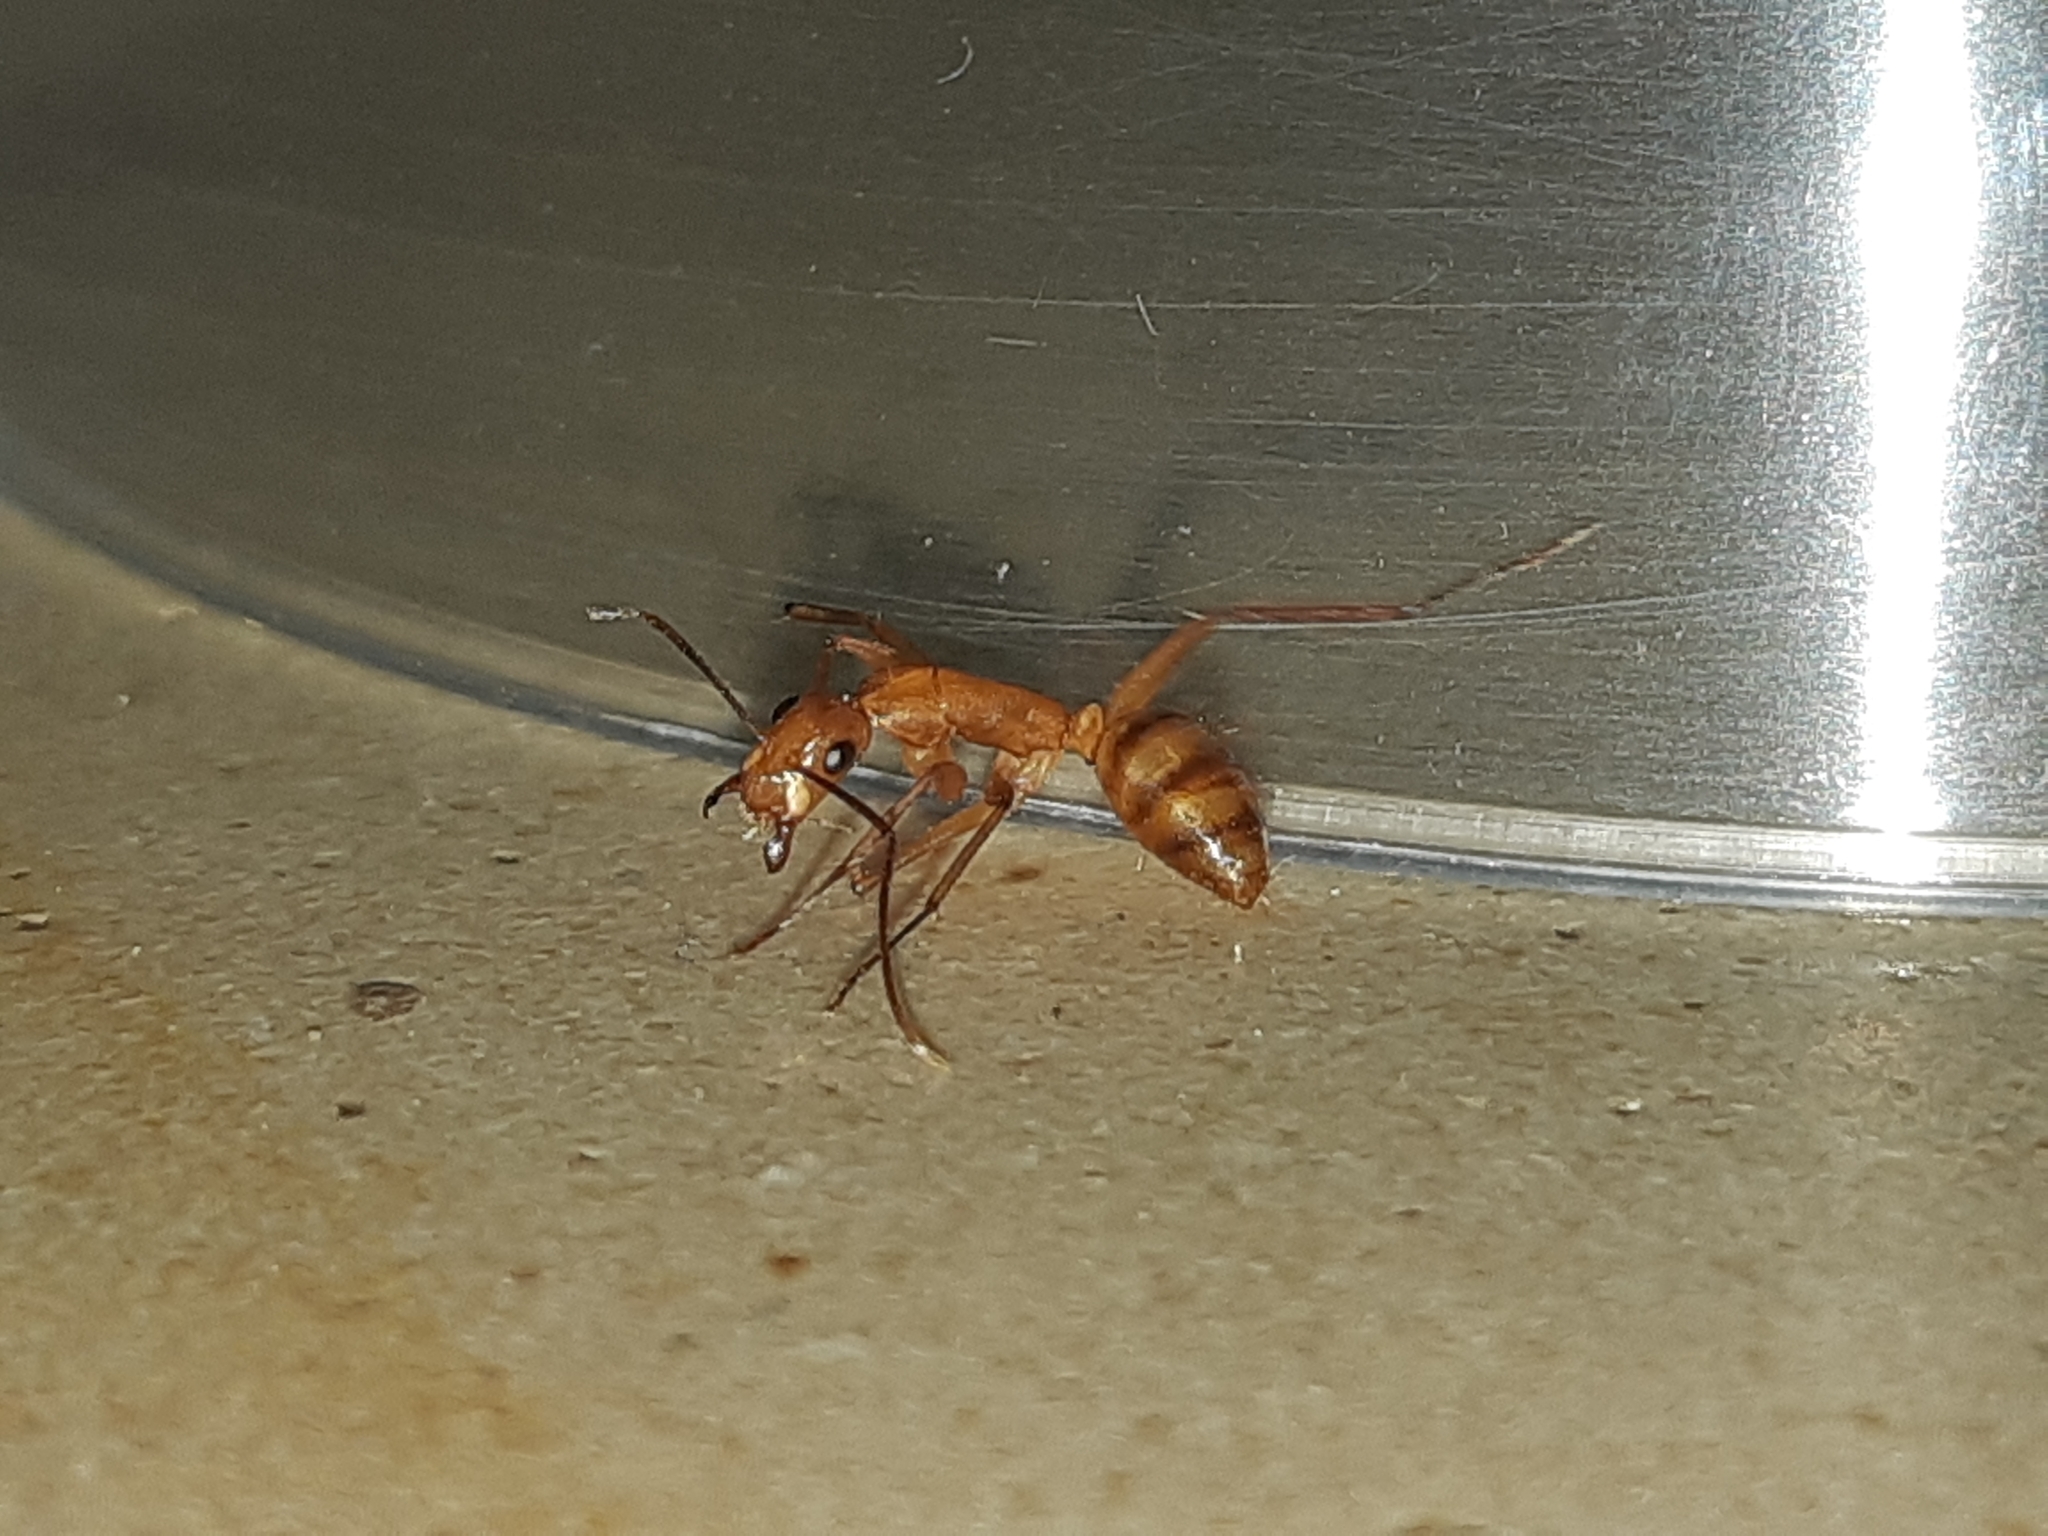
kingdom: Animalia
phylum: Arthropoda
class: Insecta
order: Hymenoptera
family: Formicidae
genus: Camponotus
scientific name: Camponotus
